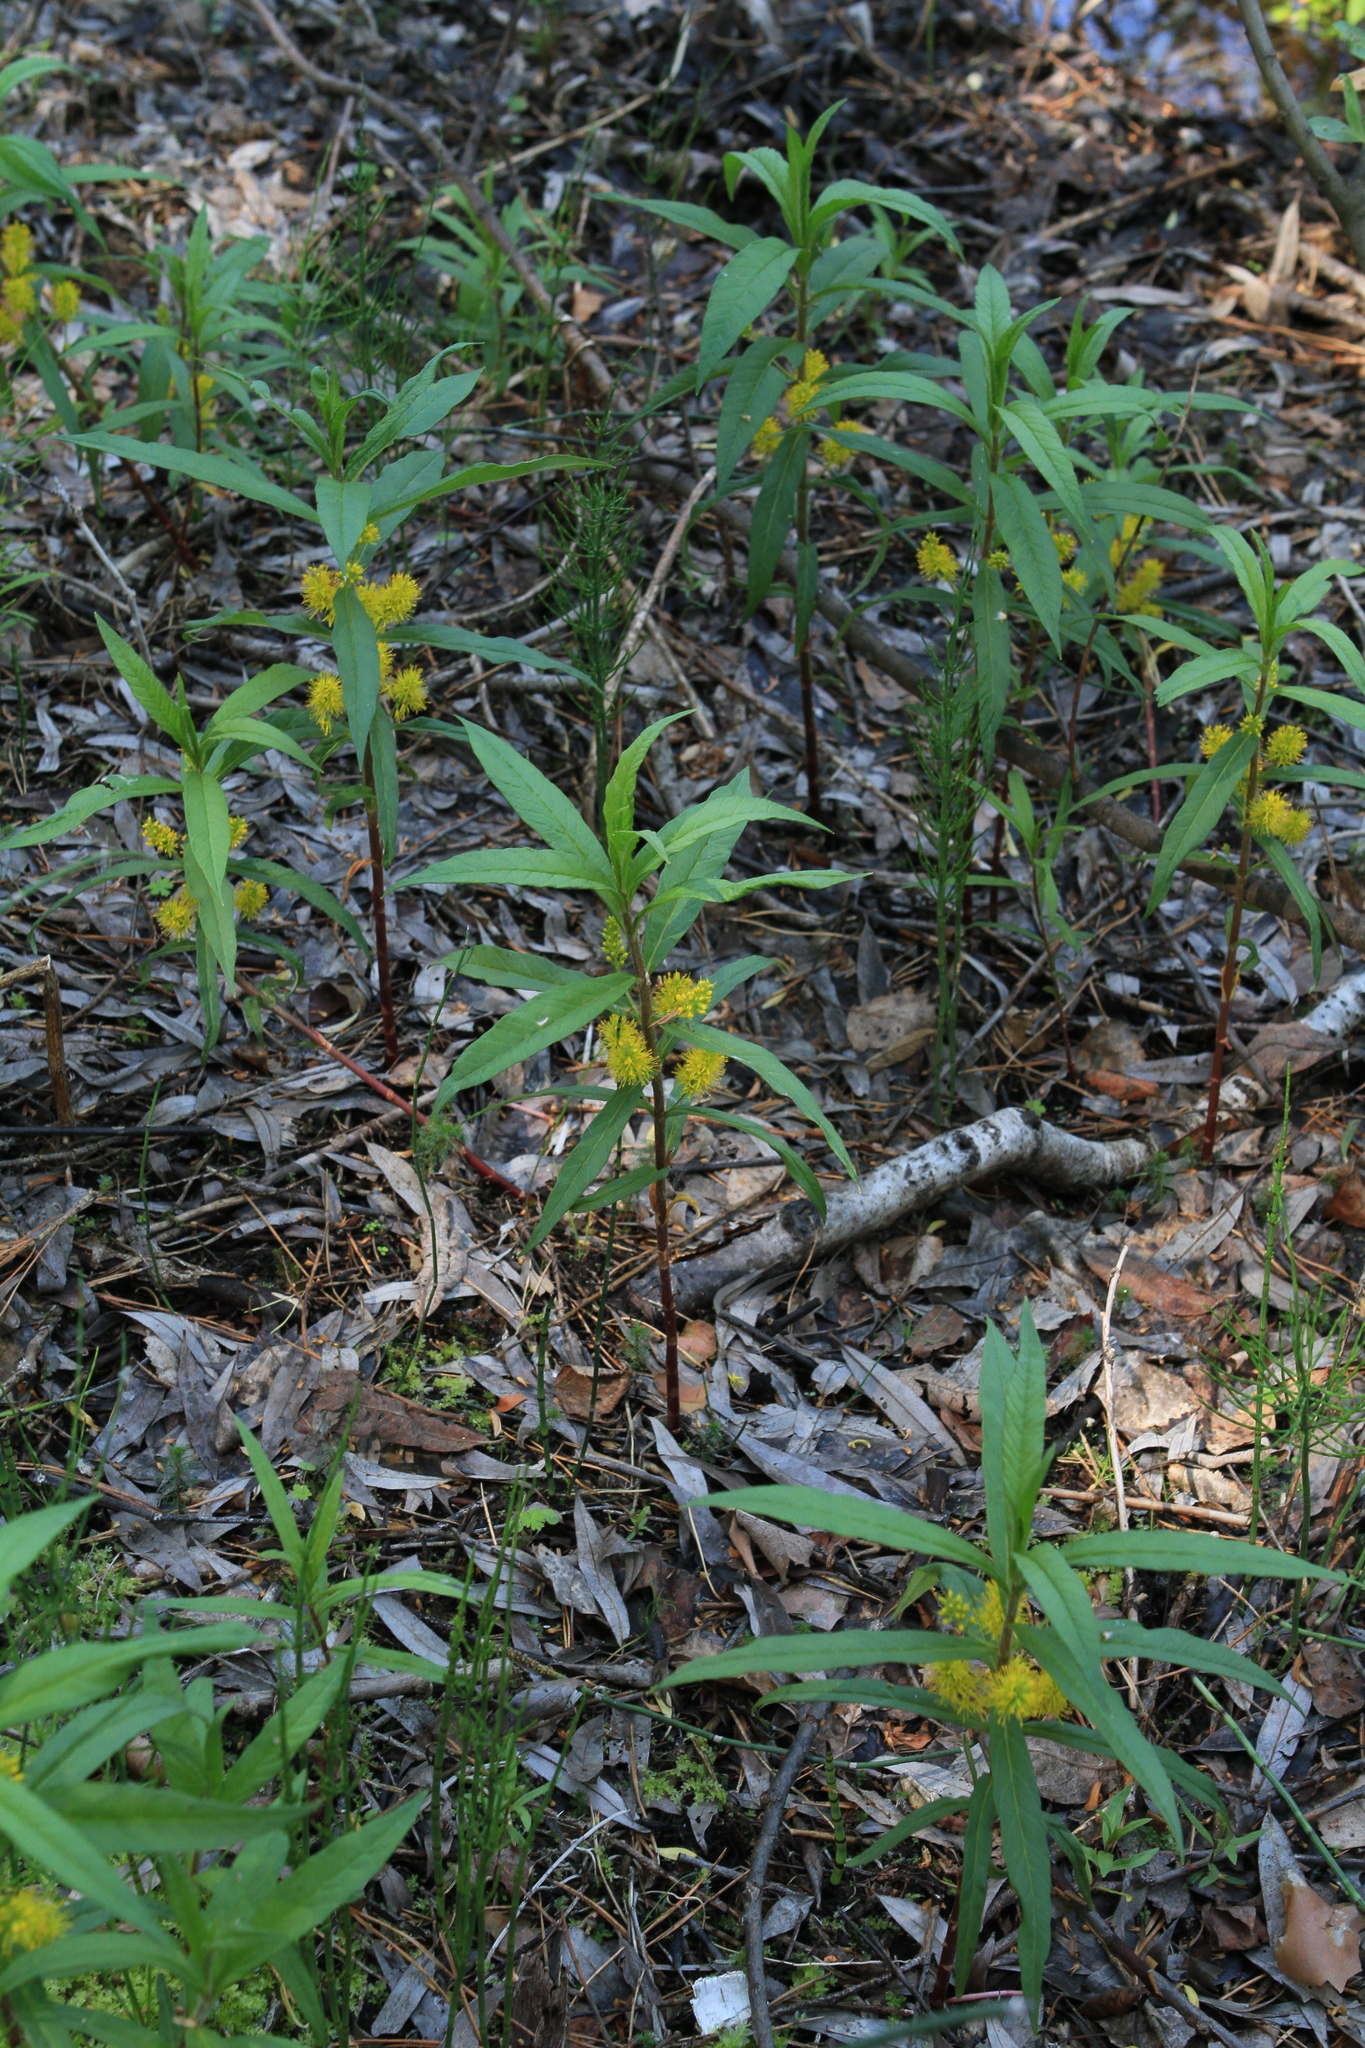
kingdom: Plantae
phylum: Tracheophyta
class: Magnoliopsida
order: Ericales
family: Primulaceae
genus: Lysimachia
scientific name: Lysimachia thyrsiflora
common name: Tufted loosestrife
